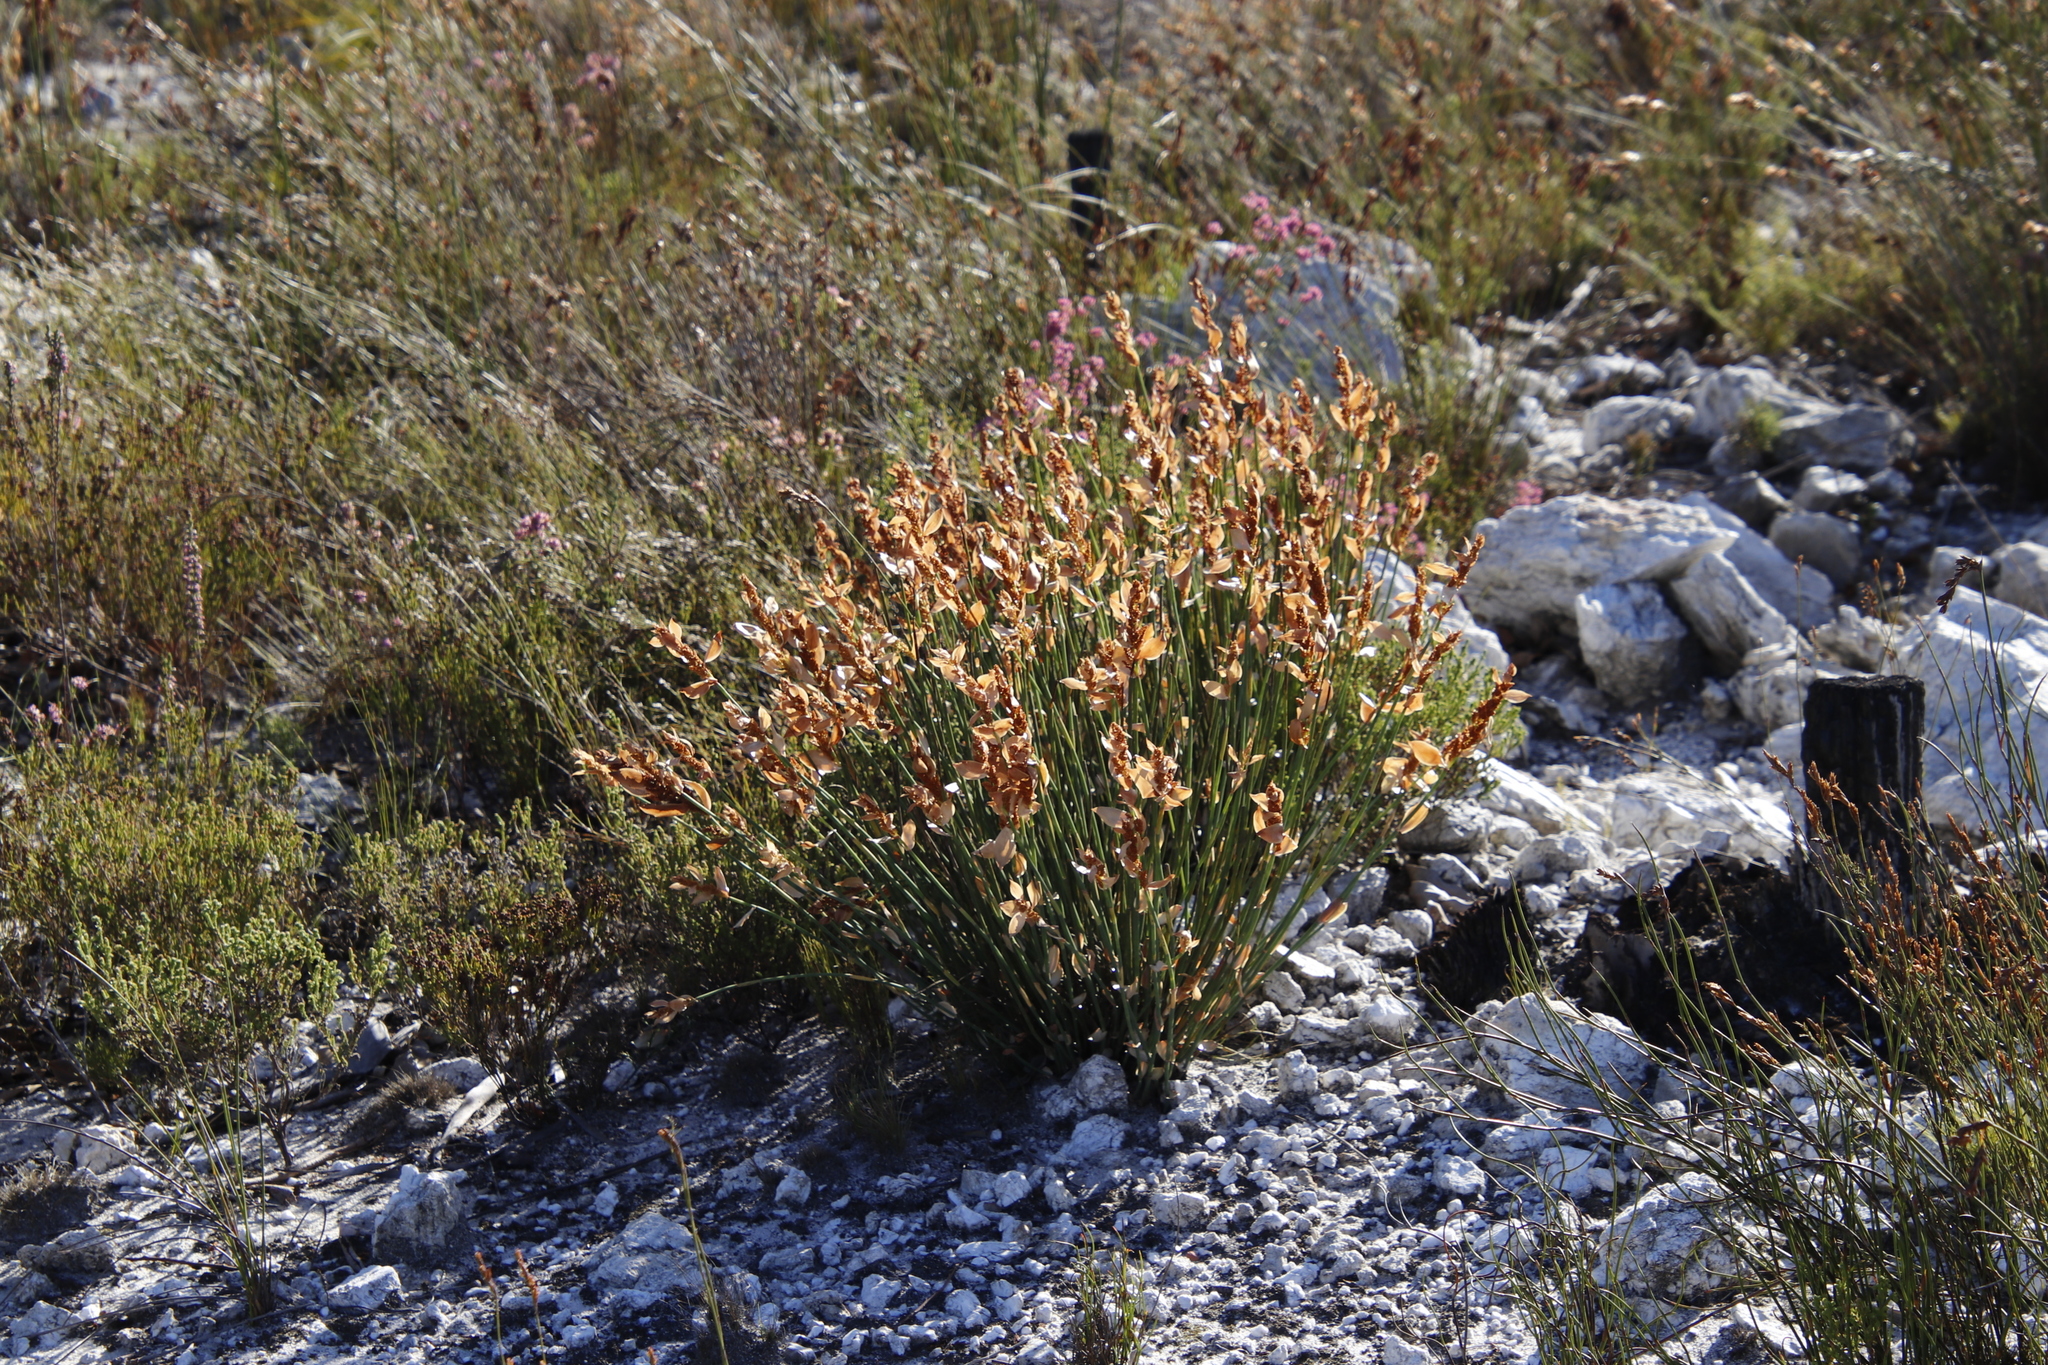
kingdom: Plantae
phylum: Tracheophyta
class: Liliopsida
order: Poales
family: Restionaceae
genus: Elegia
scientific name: Elegia juncea
